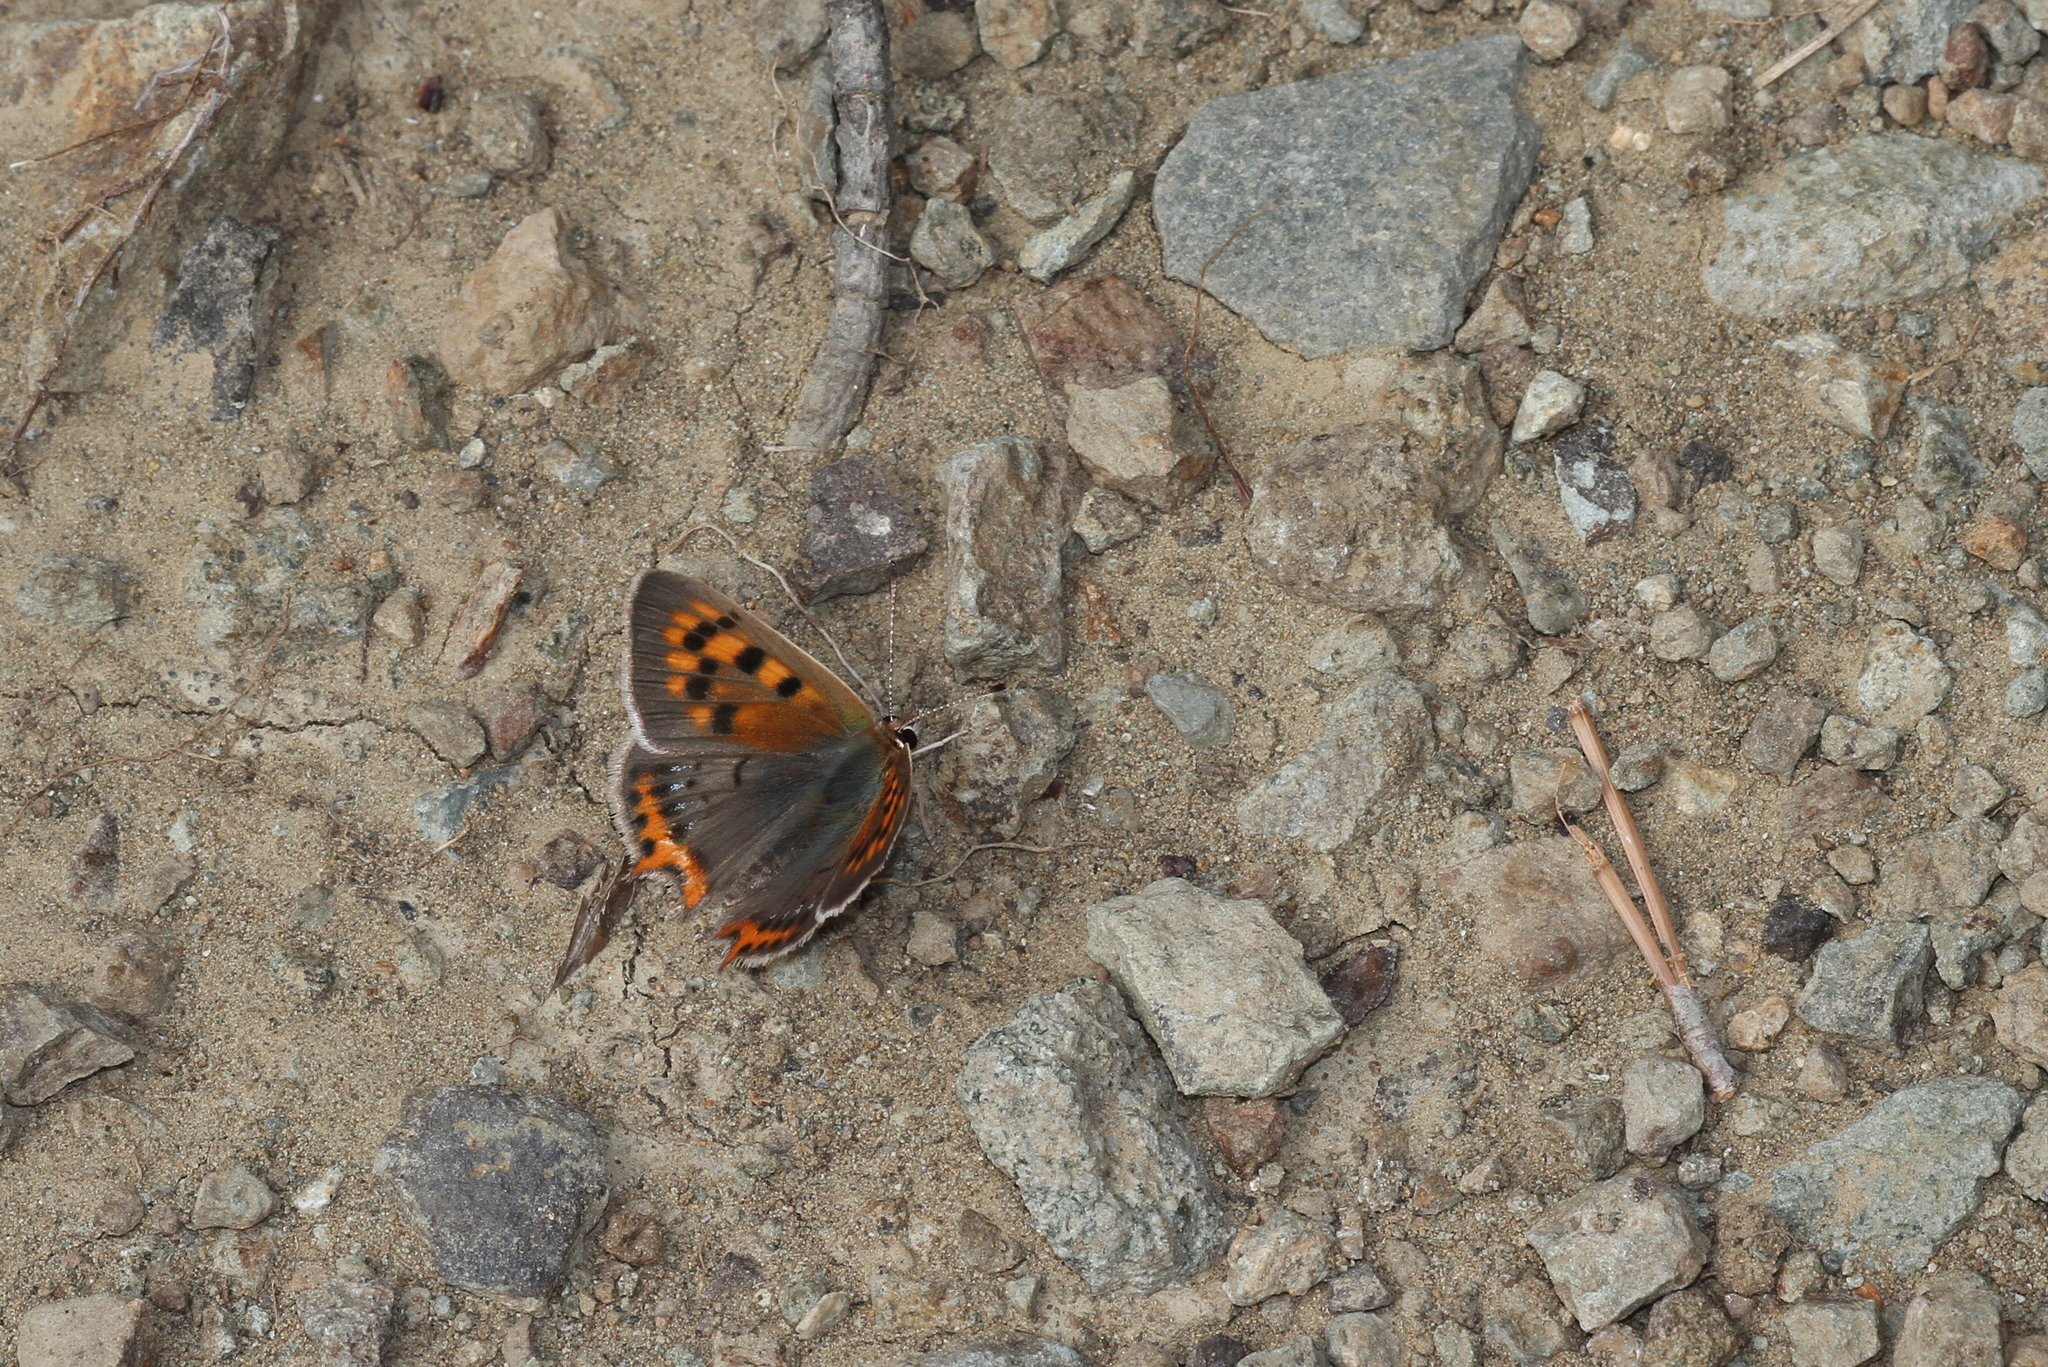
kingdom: Animalia
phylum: Arthropoda
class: Insecta
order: Lepidoptera
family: Lycaenidae
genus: Lycaena
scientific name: Lycaena phlaeas
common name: Small copper
